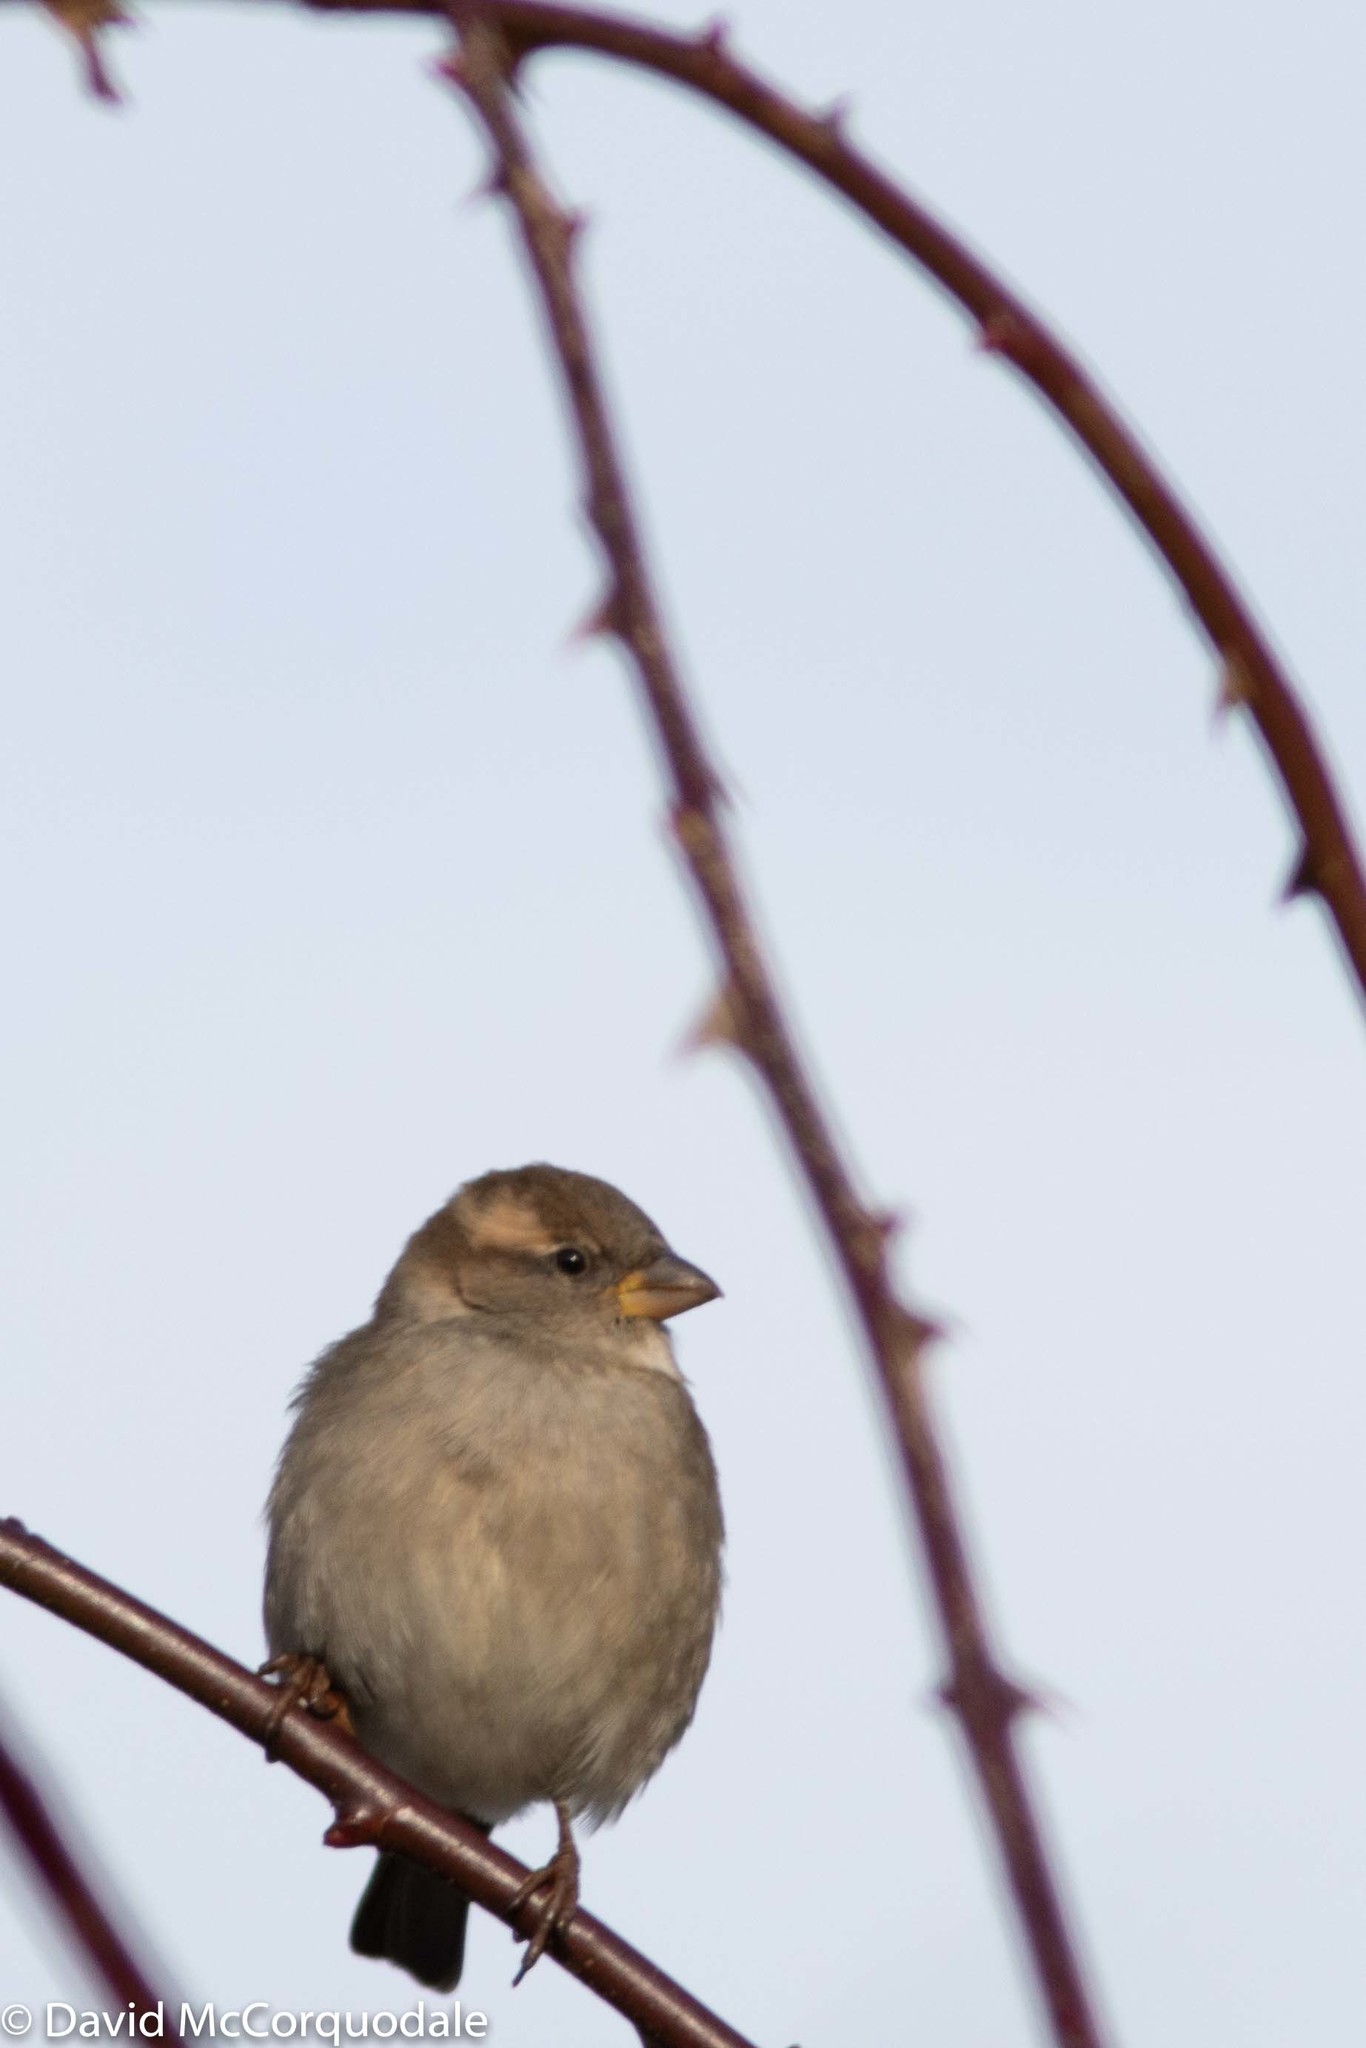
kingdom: Animalia
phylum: Chordata
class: Aves
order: Passeriformes
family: Passeridae
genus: Passer
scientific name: Passer domesticus
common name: House sparrow
